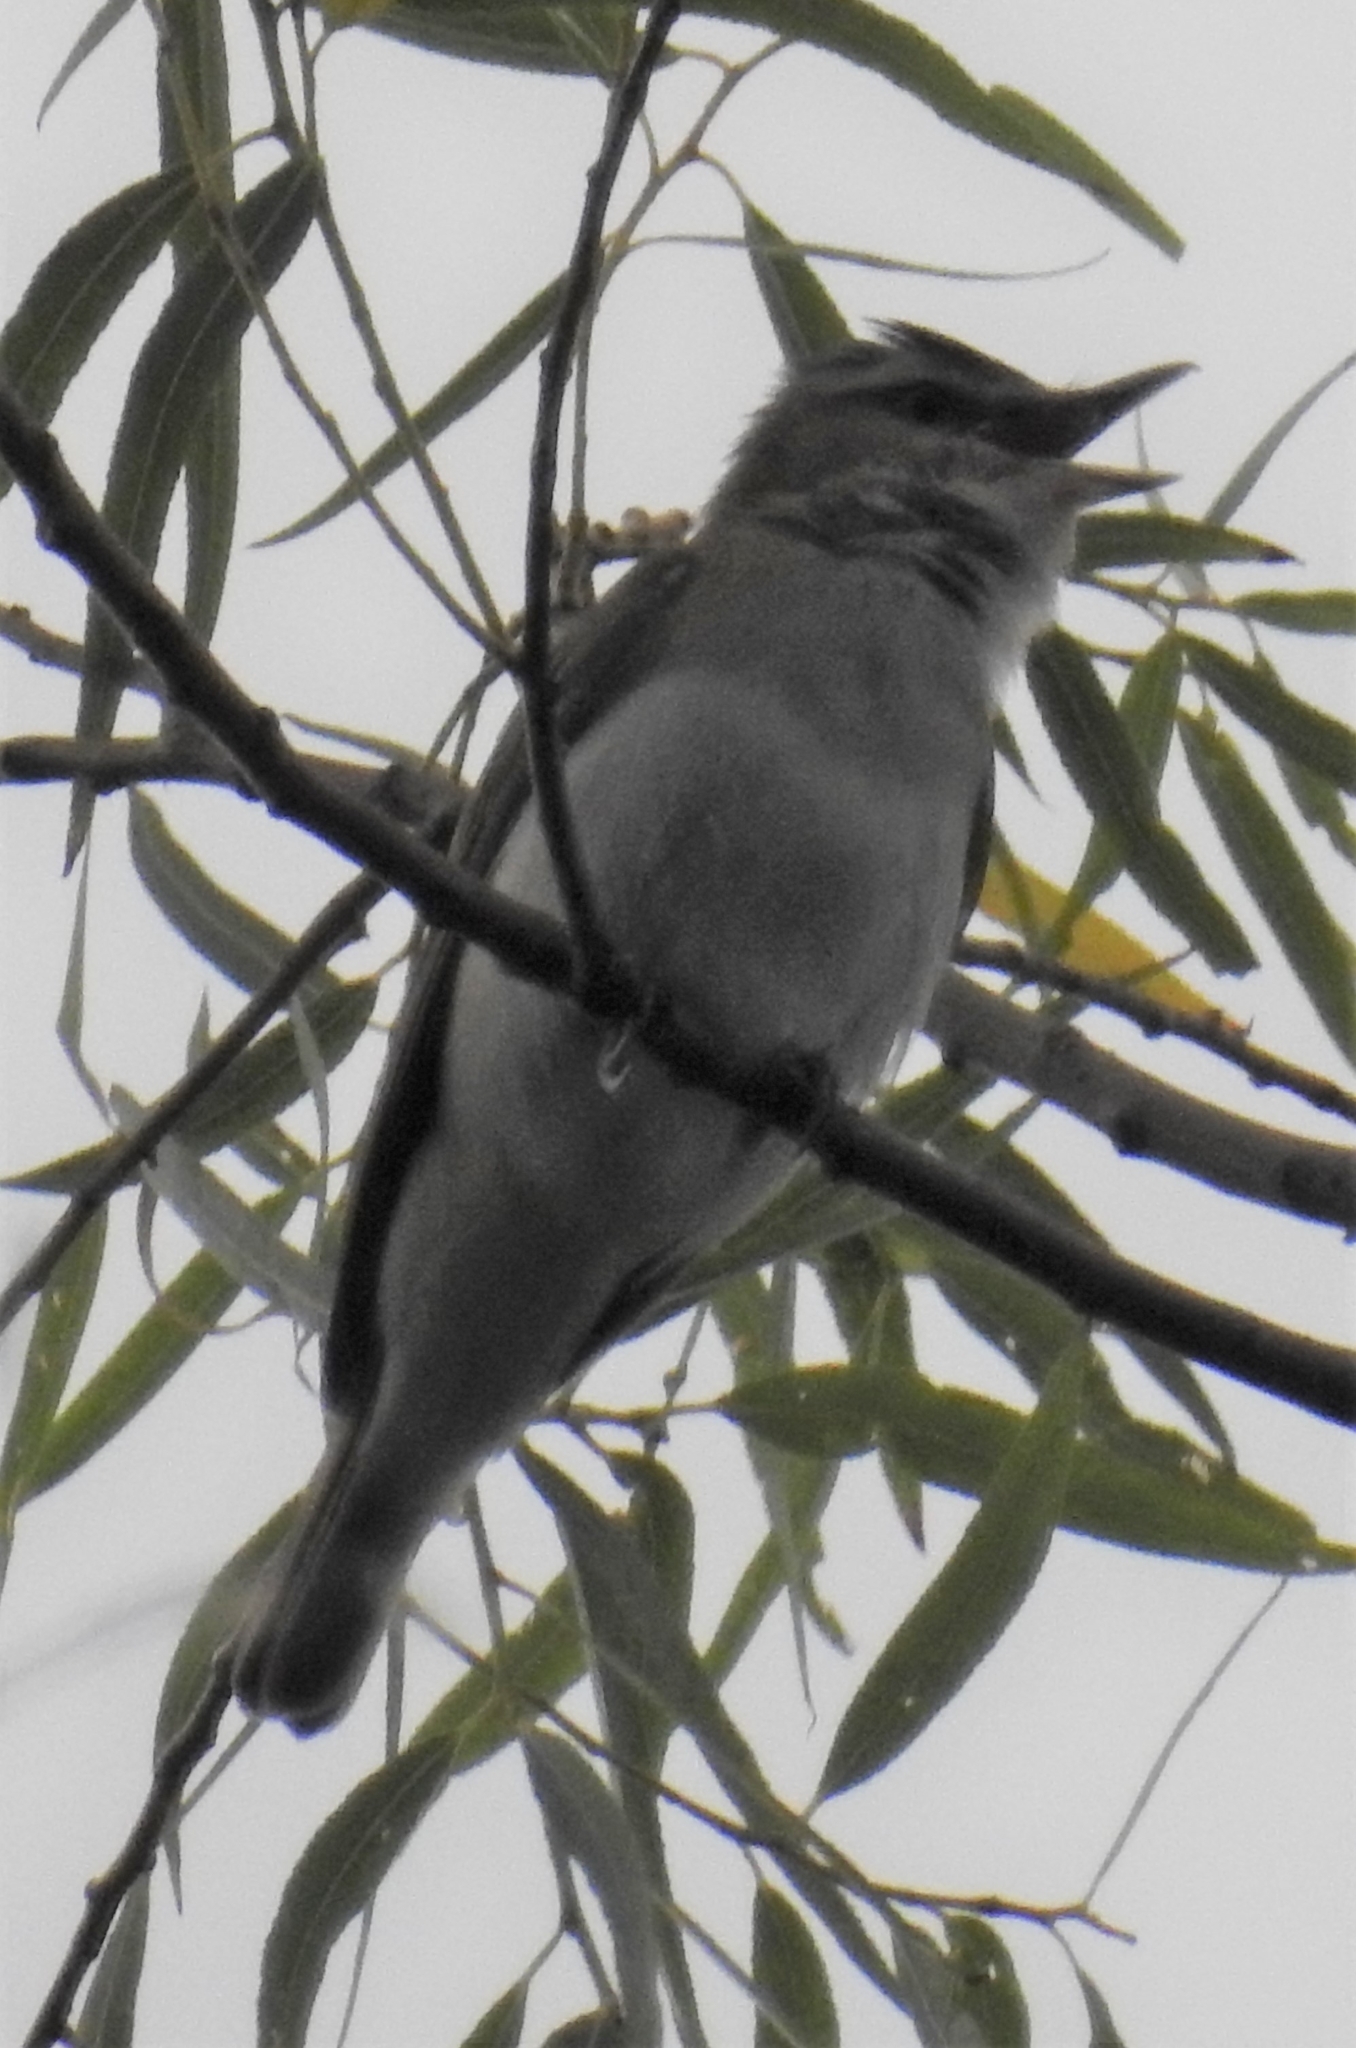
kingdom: Animalia
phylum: Chordata
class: Aves
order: Passeriformes
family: Vireonidae
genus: Vireo
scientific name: Vireo olivaceus
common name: Red-eyed vireo
